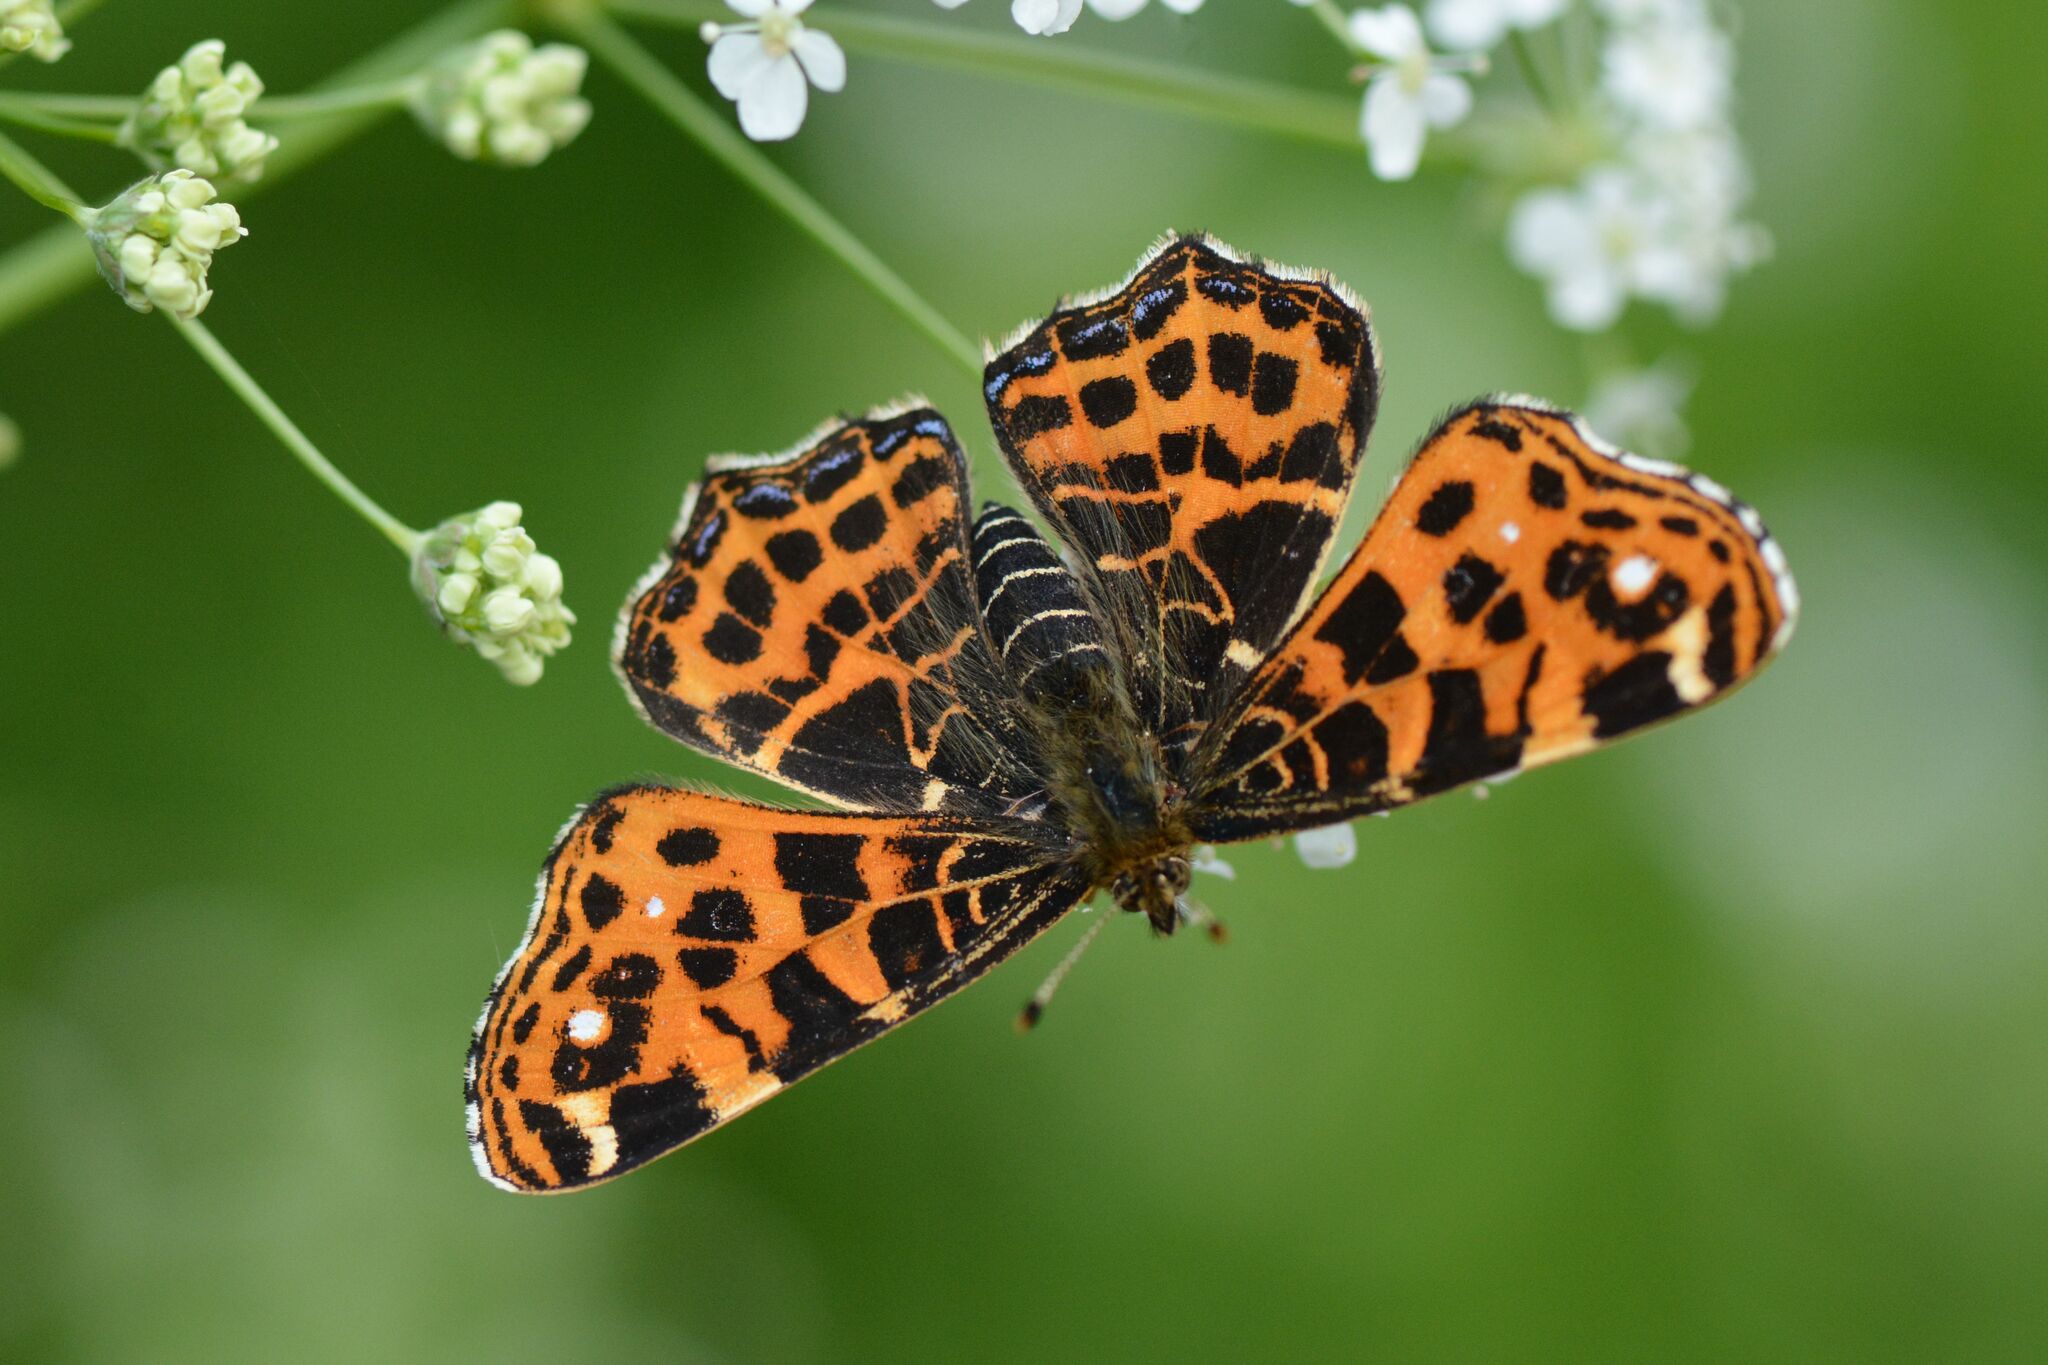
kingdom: Animalia
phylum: Arthropoda
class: Insecta
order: Lepidoptera
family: Nymphalidae
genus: Araschnia
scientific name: Araschnia levana
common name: Map butterfly
